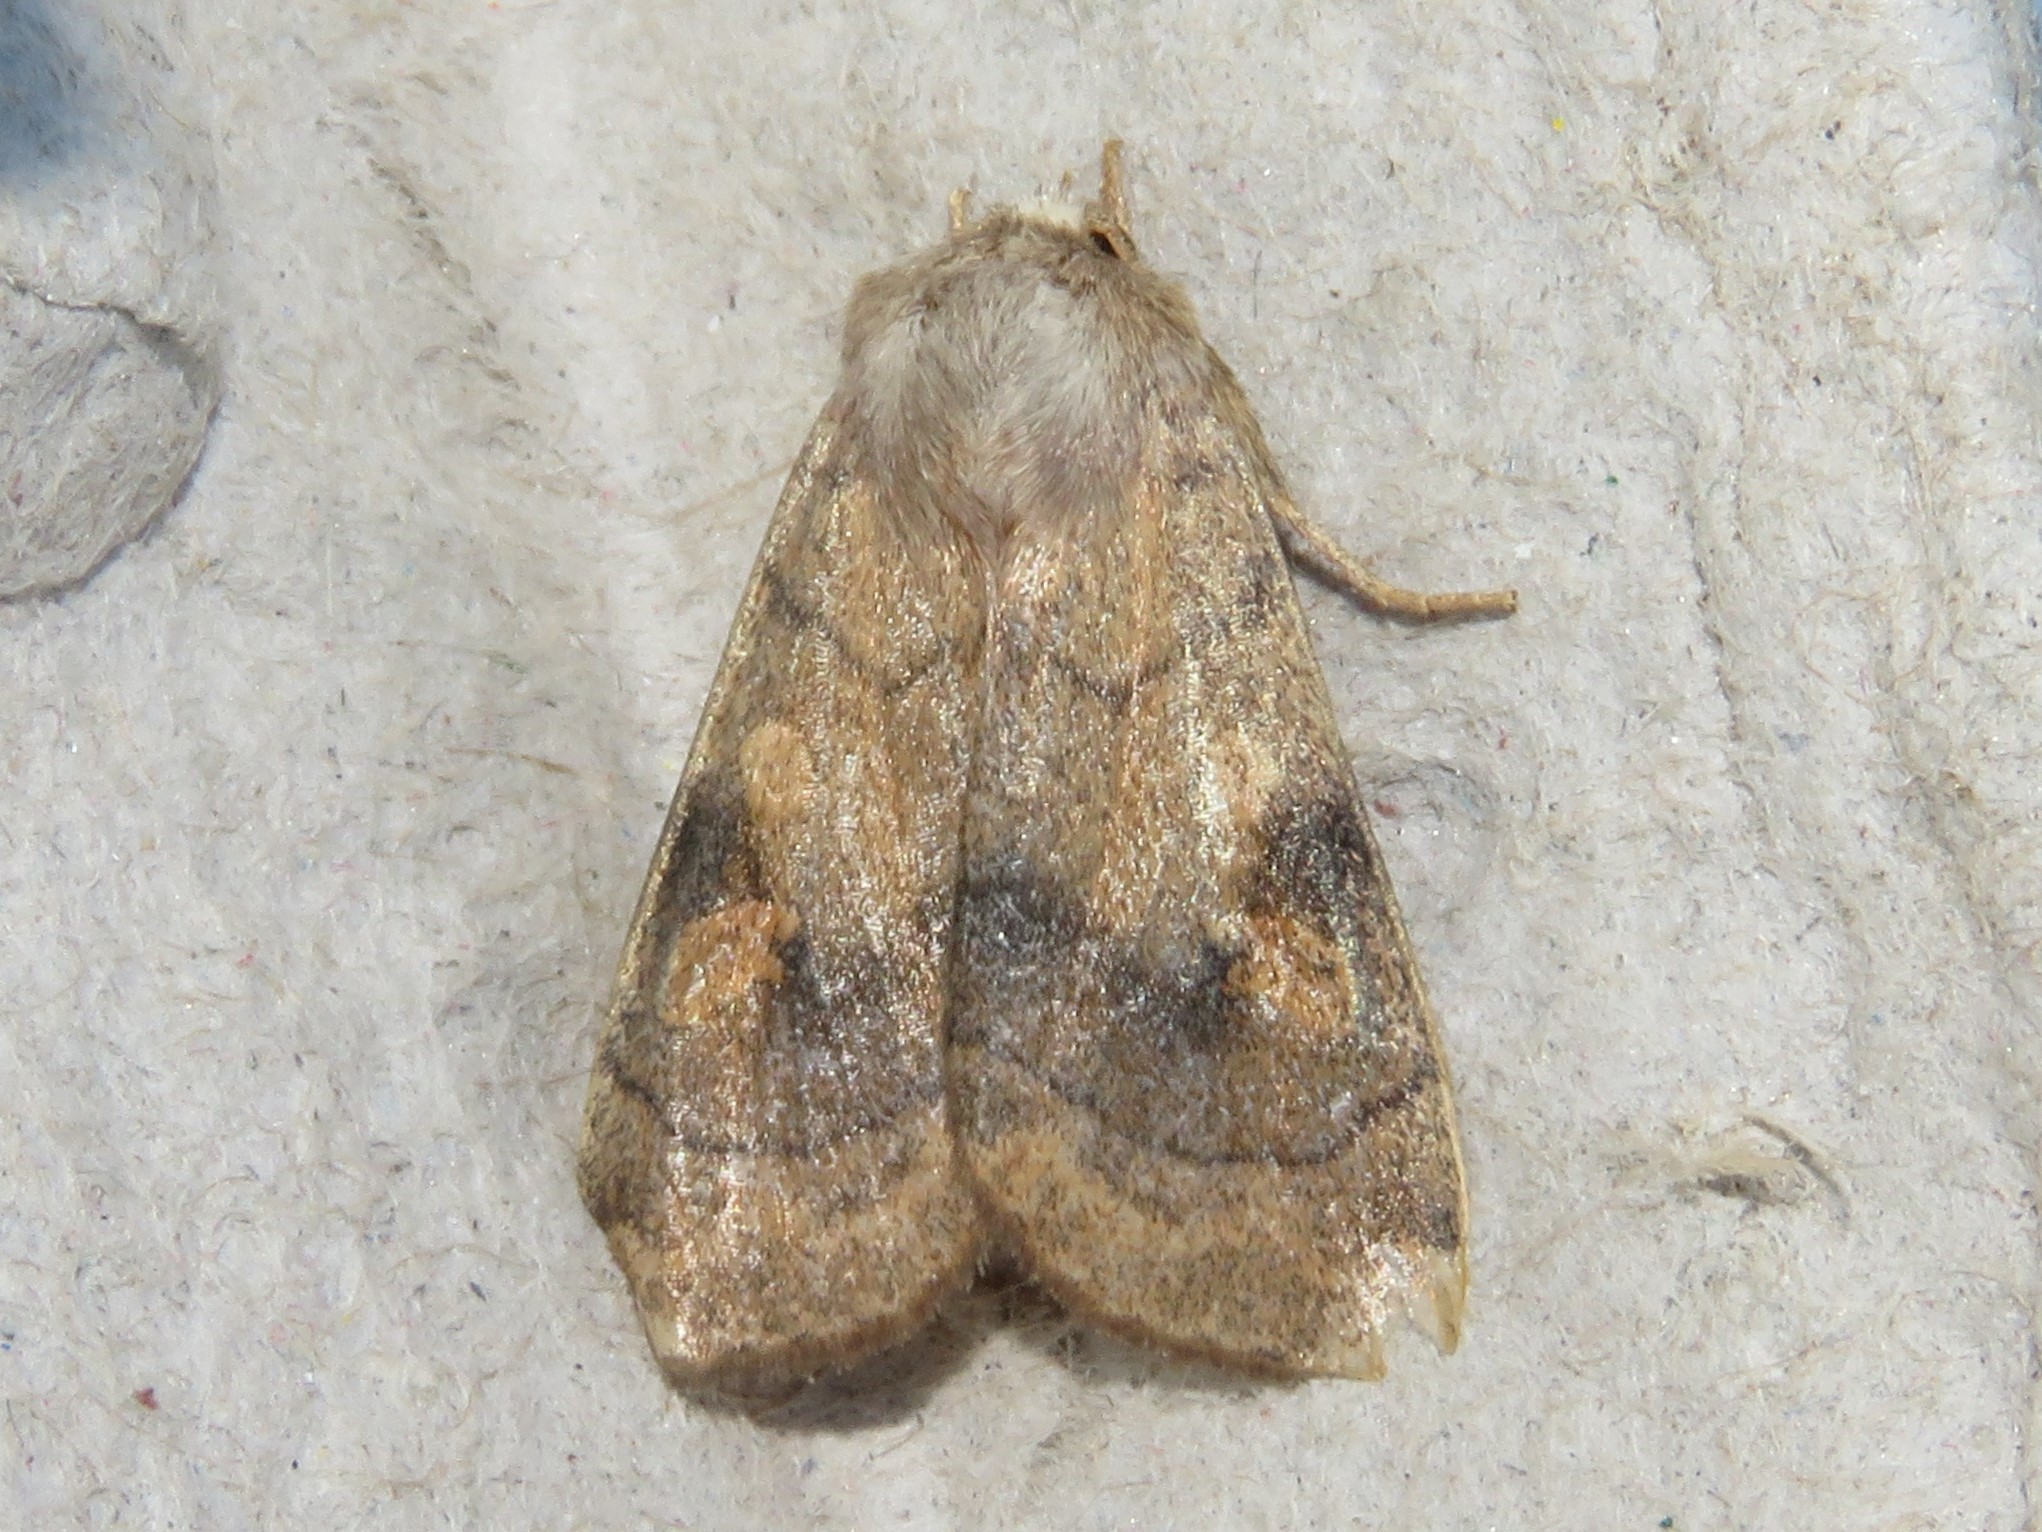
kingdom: Animalia
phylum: Arthropoda
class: Insecta
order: Lepidoptera
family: Noctuidae
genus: Enargia
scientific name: Enargia infumata
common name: Smoked sallow
